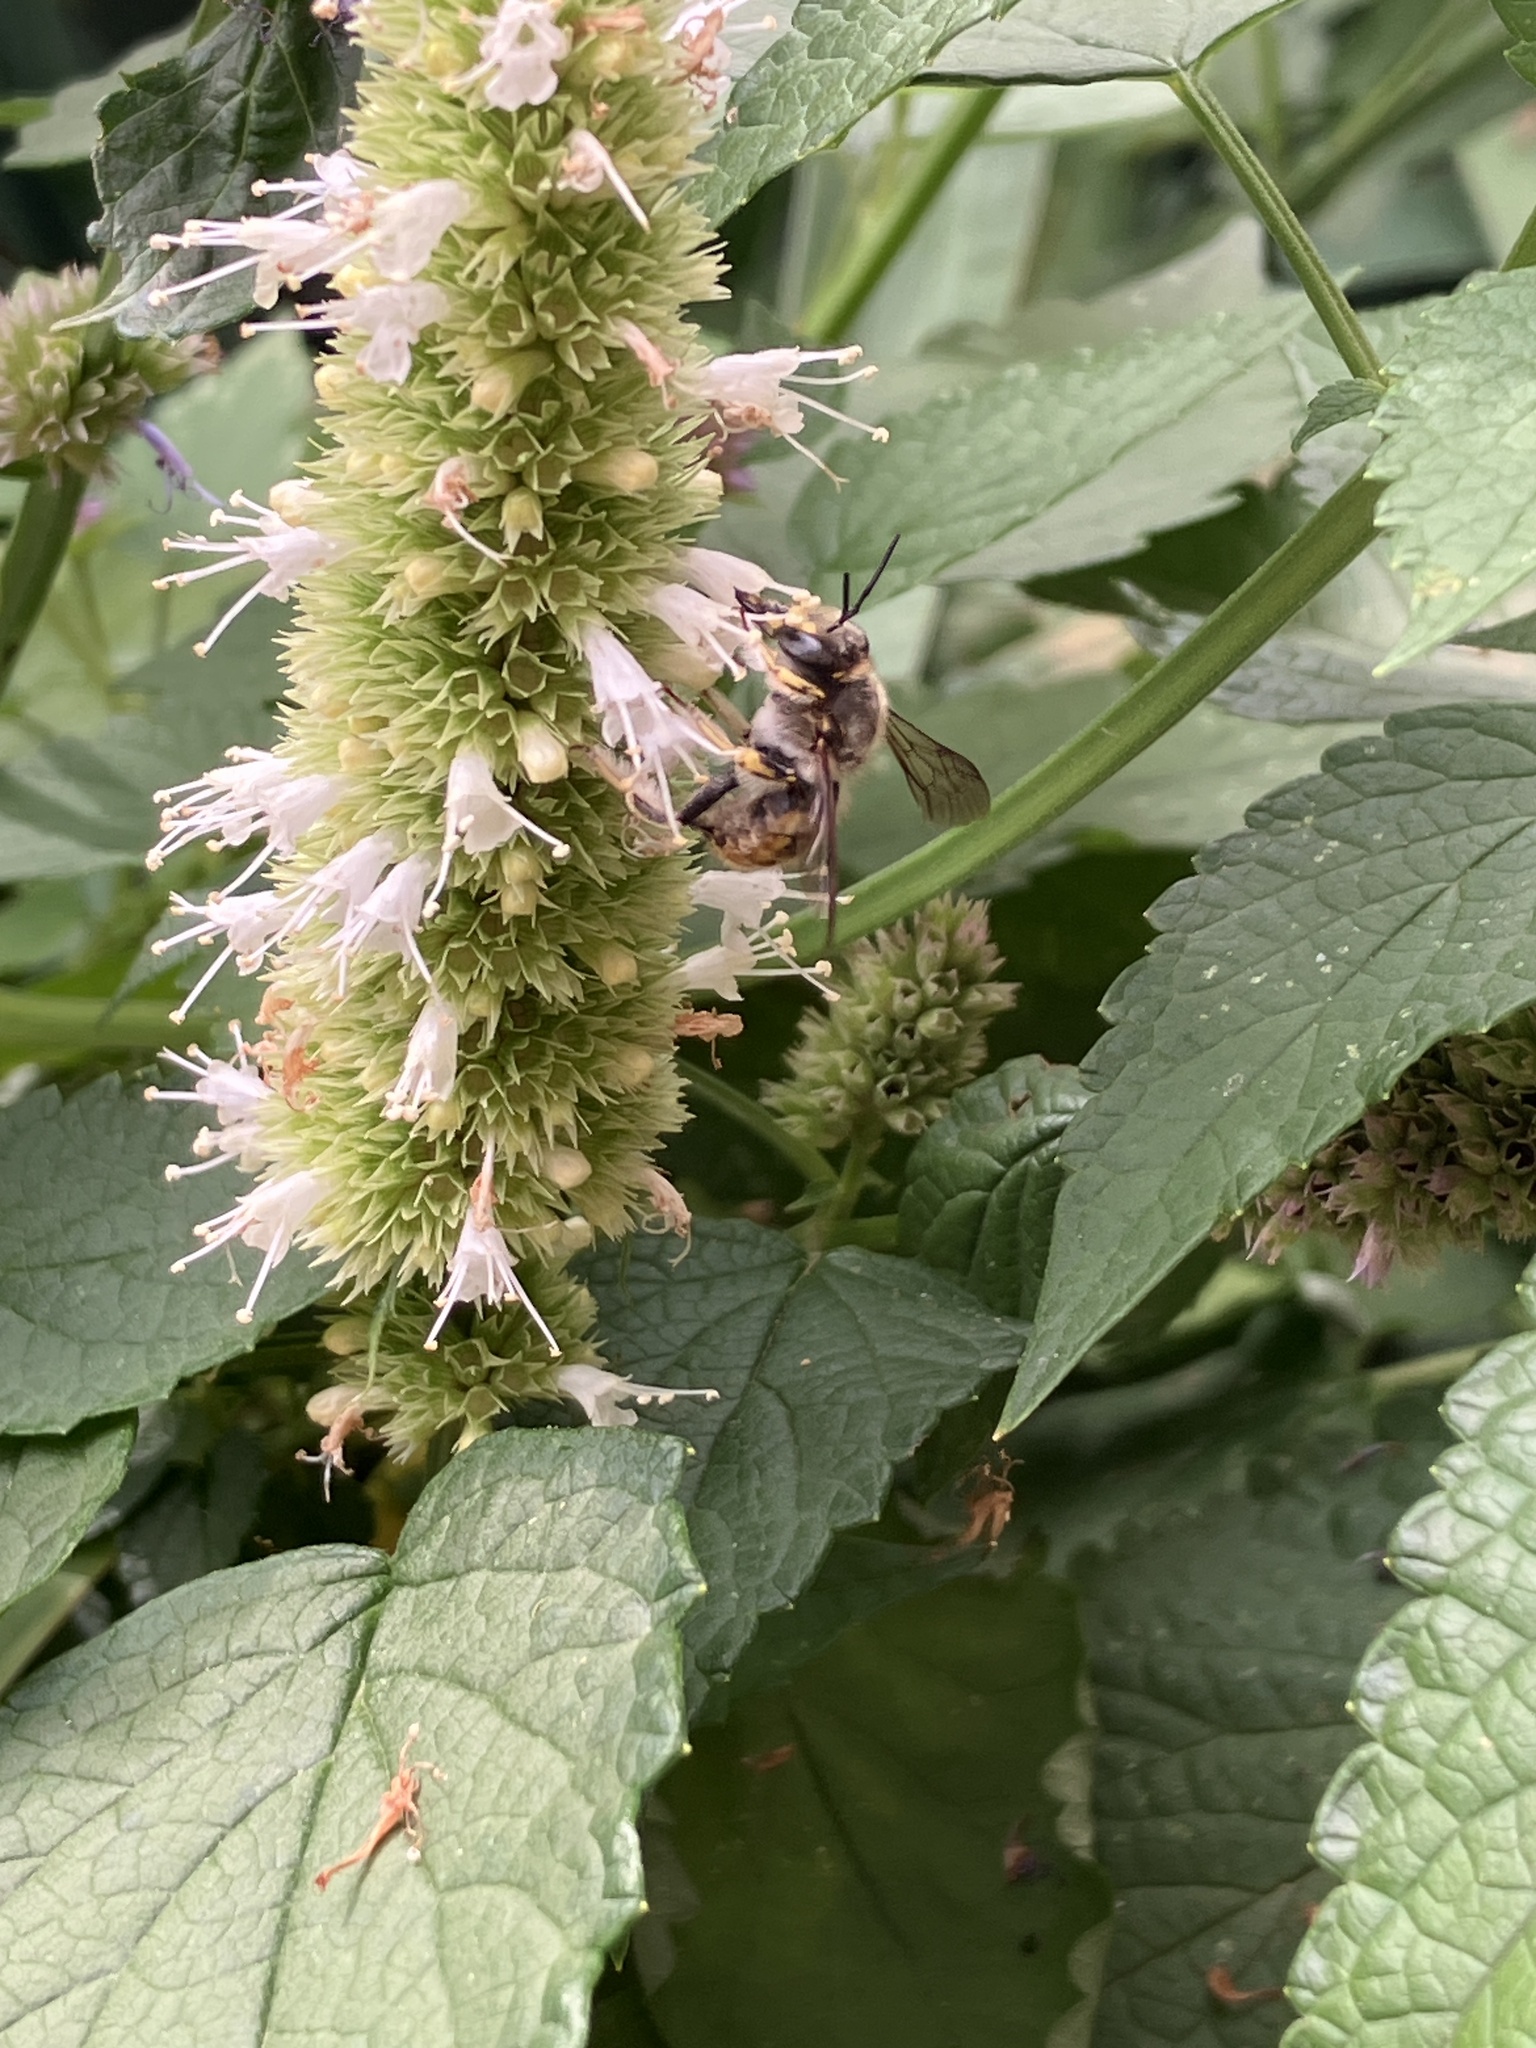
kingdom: Animalia
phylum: Arthropoda
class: Insecta
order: Hymenoptera
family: Megachilidae
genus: Anthidium
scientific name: Anthidium manicatum
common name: Wool carder bee
